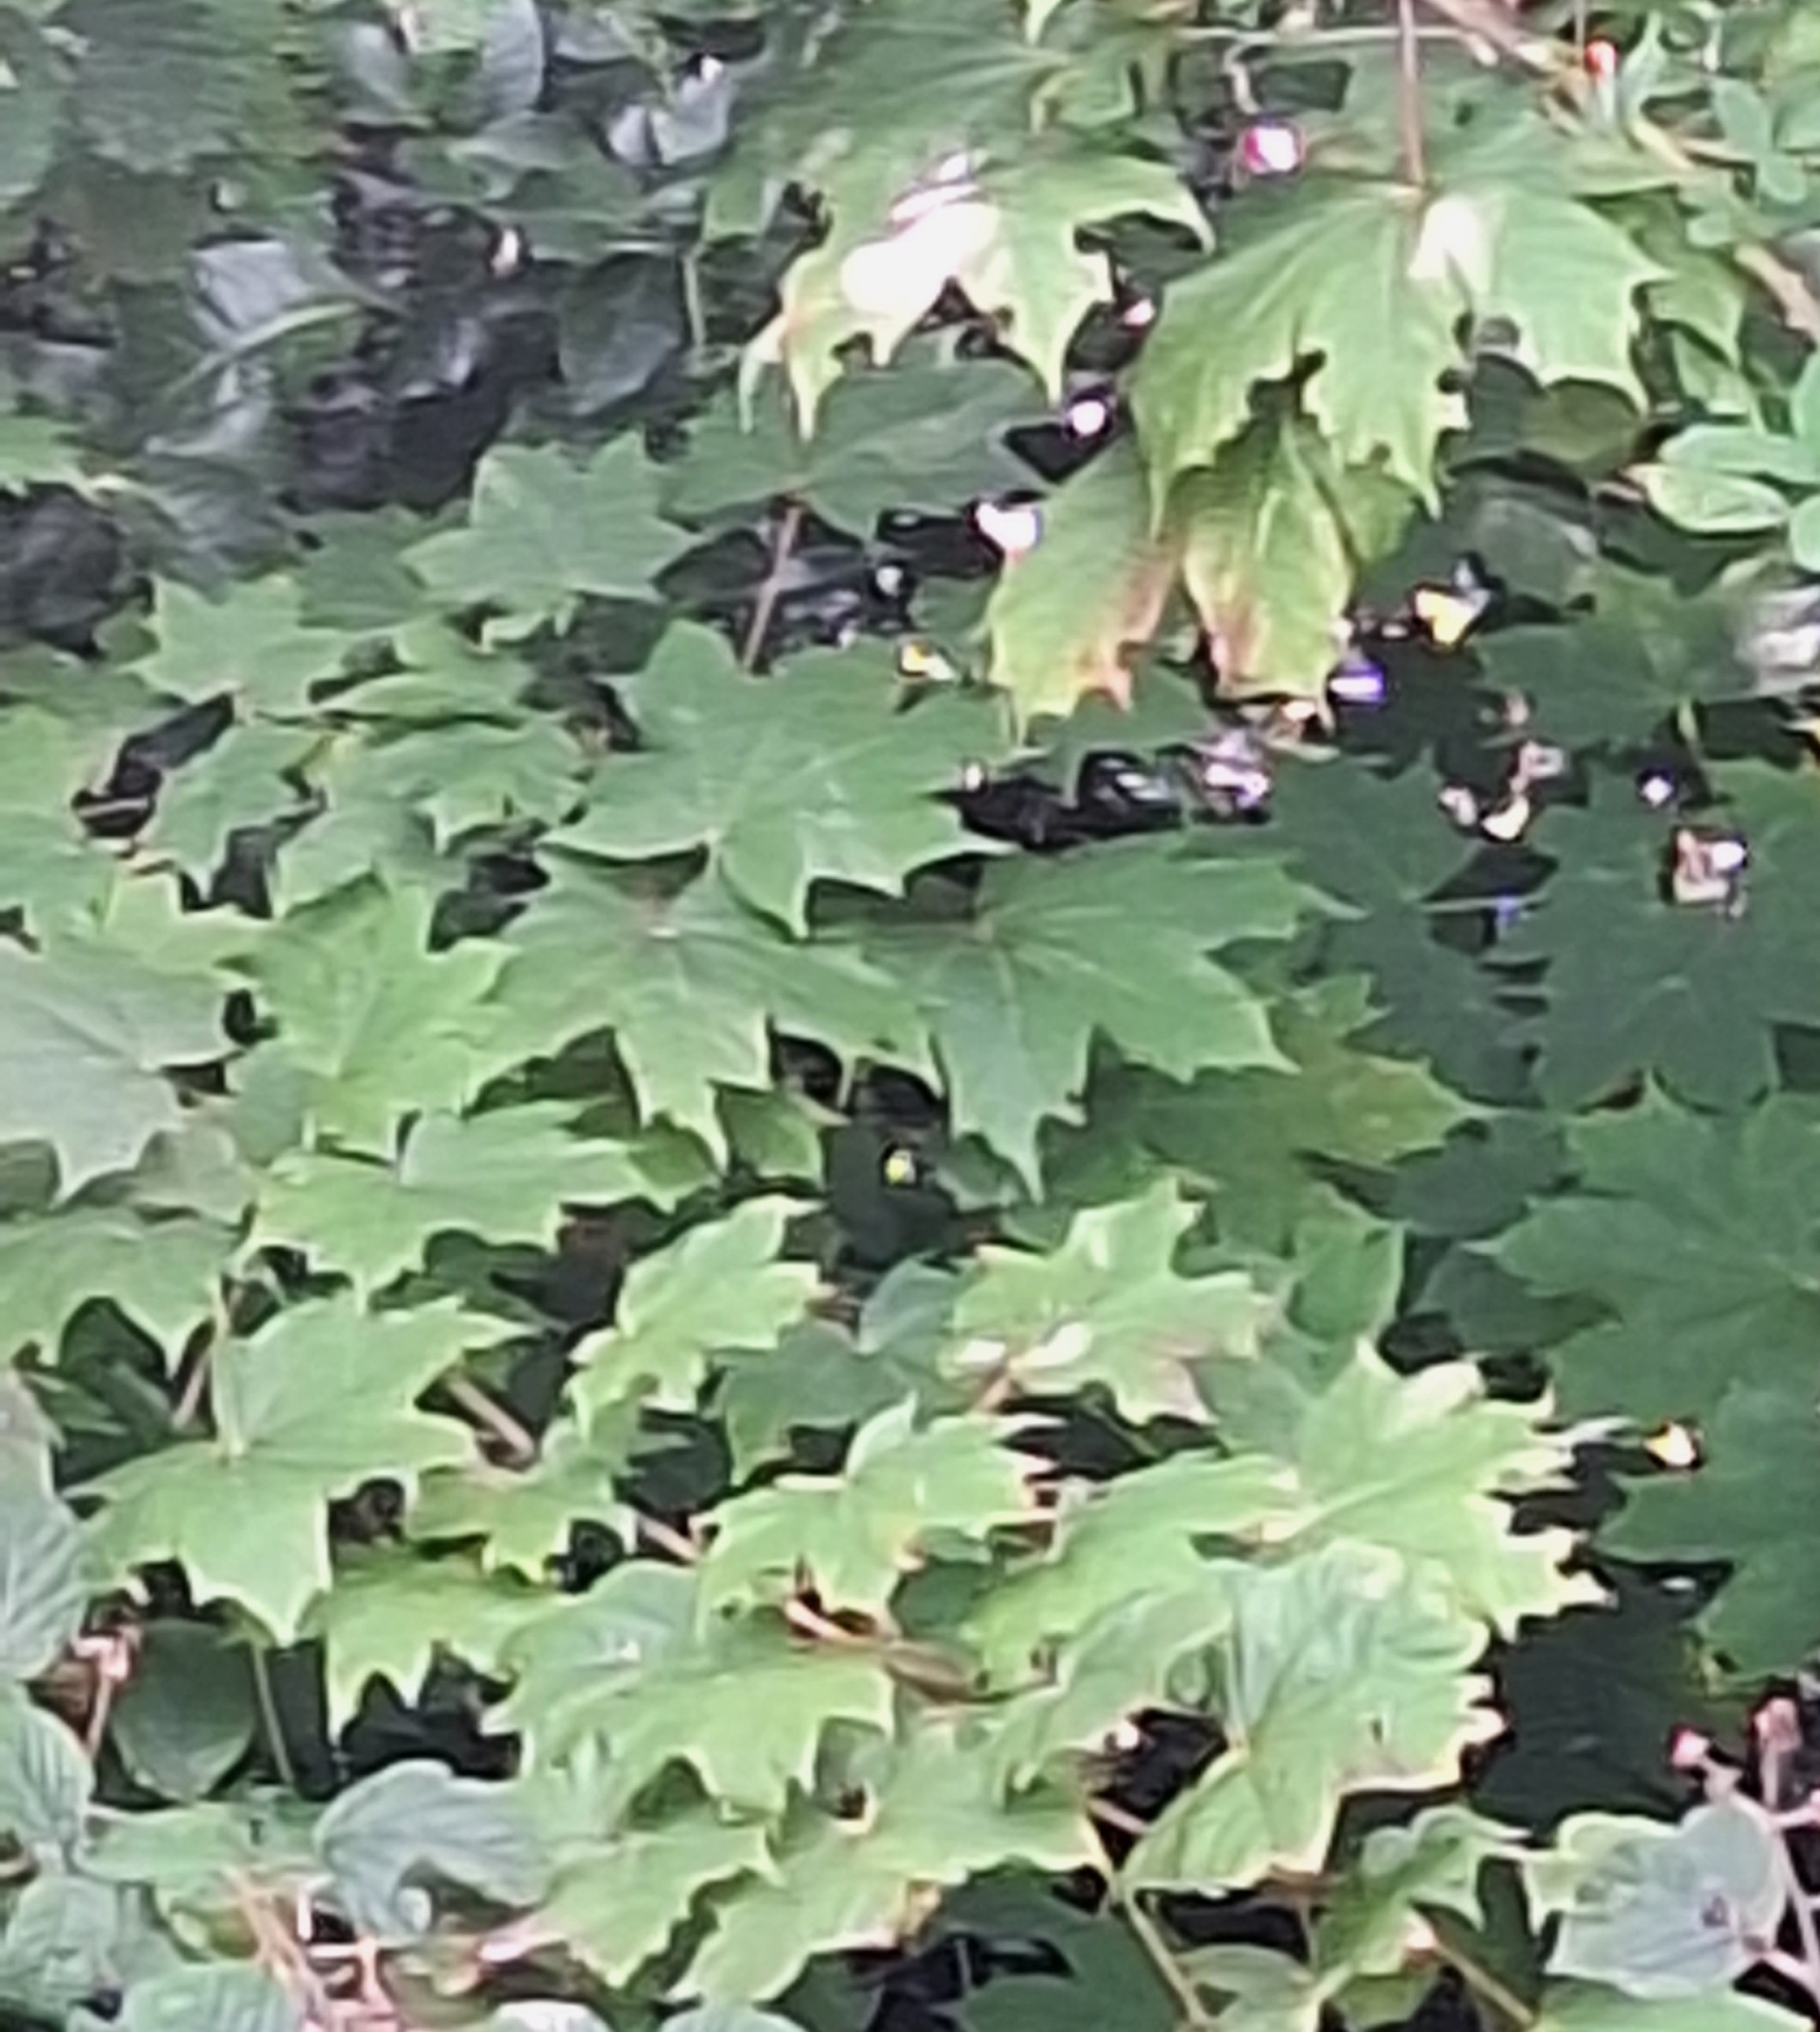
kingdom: Plantae
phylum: Tracheophyta
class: Magnoliopsida
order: Sapindales
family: Sapindaceae
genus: Acer
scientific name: Acer platanoides
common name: Norway maple
